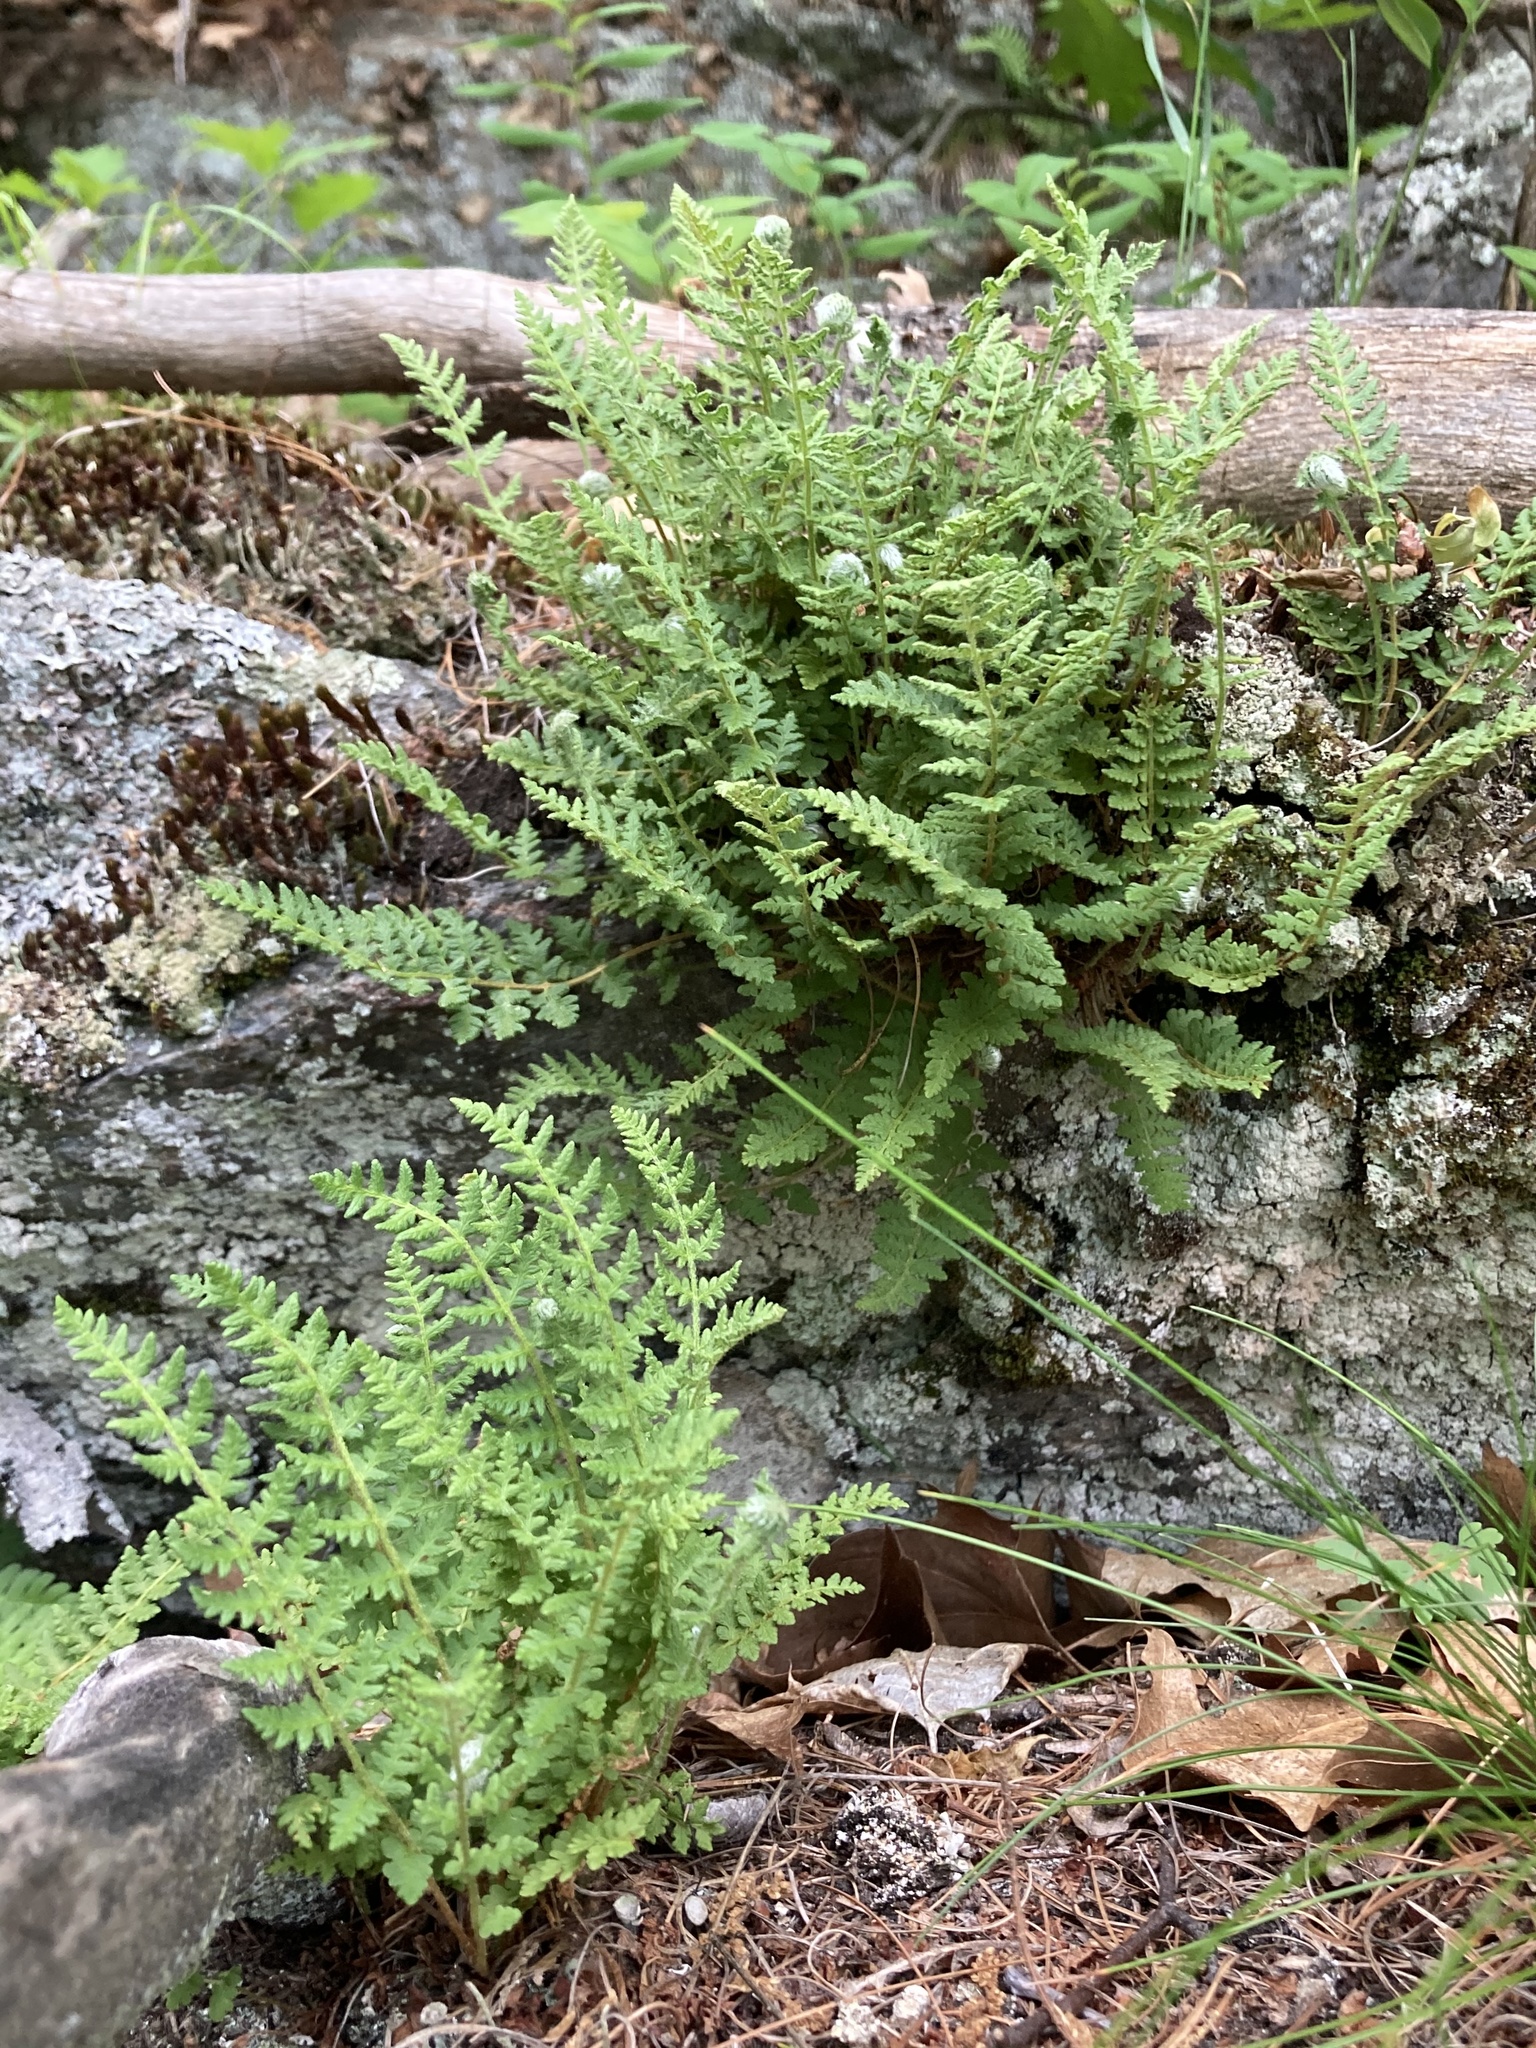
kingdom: Plantae
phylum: Tracheophyta
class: Polypodiopsida
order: Polypodiales
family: Woodsiaceae
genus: Woodsia
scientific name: Woodsia ilvensis
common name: Fragrant woodsia
